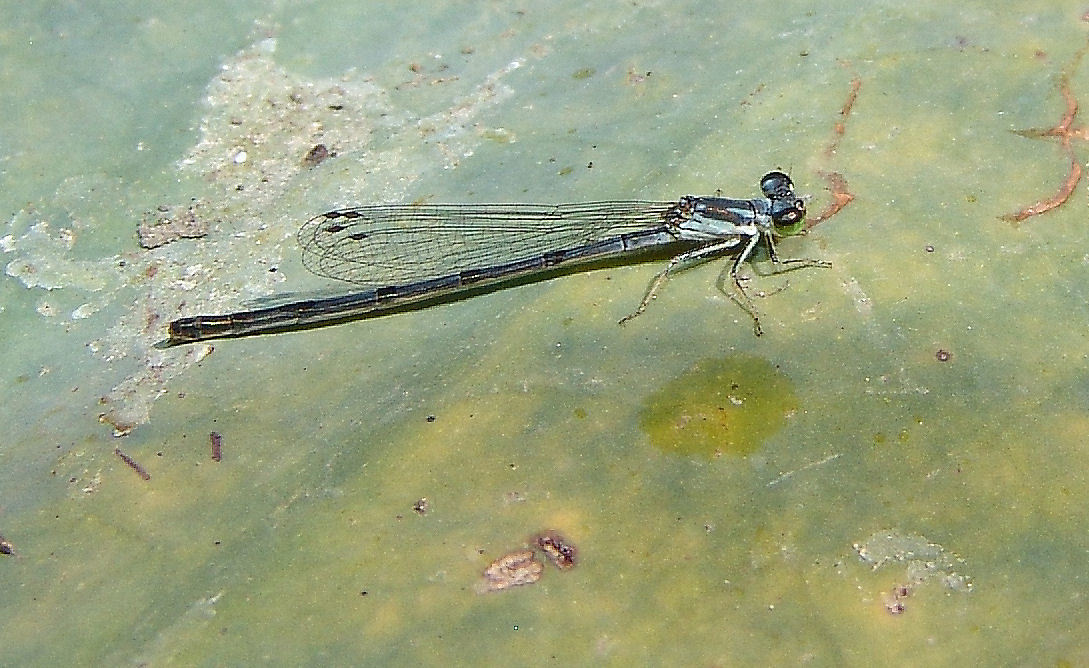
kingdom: Animalia
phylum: Arthropoda
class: Insecta
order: Odonata
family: Coenagrionidae
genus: Ischnura
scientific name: Ischnura posita
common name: Fragile forktail
